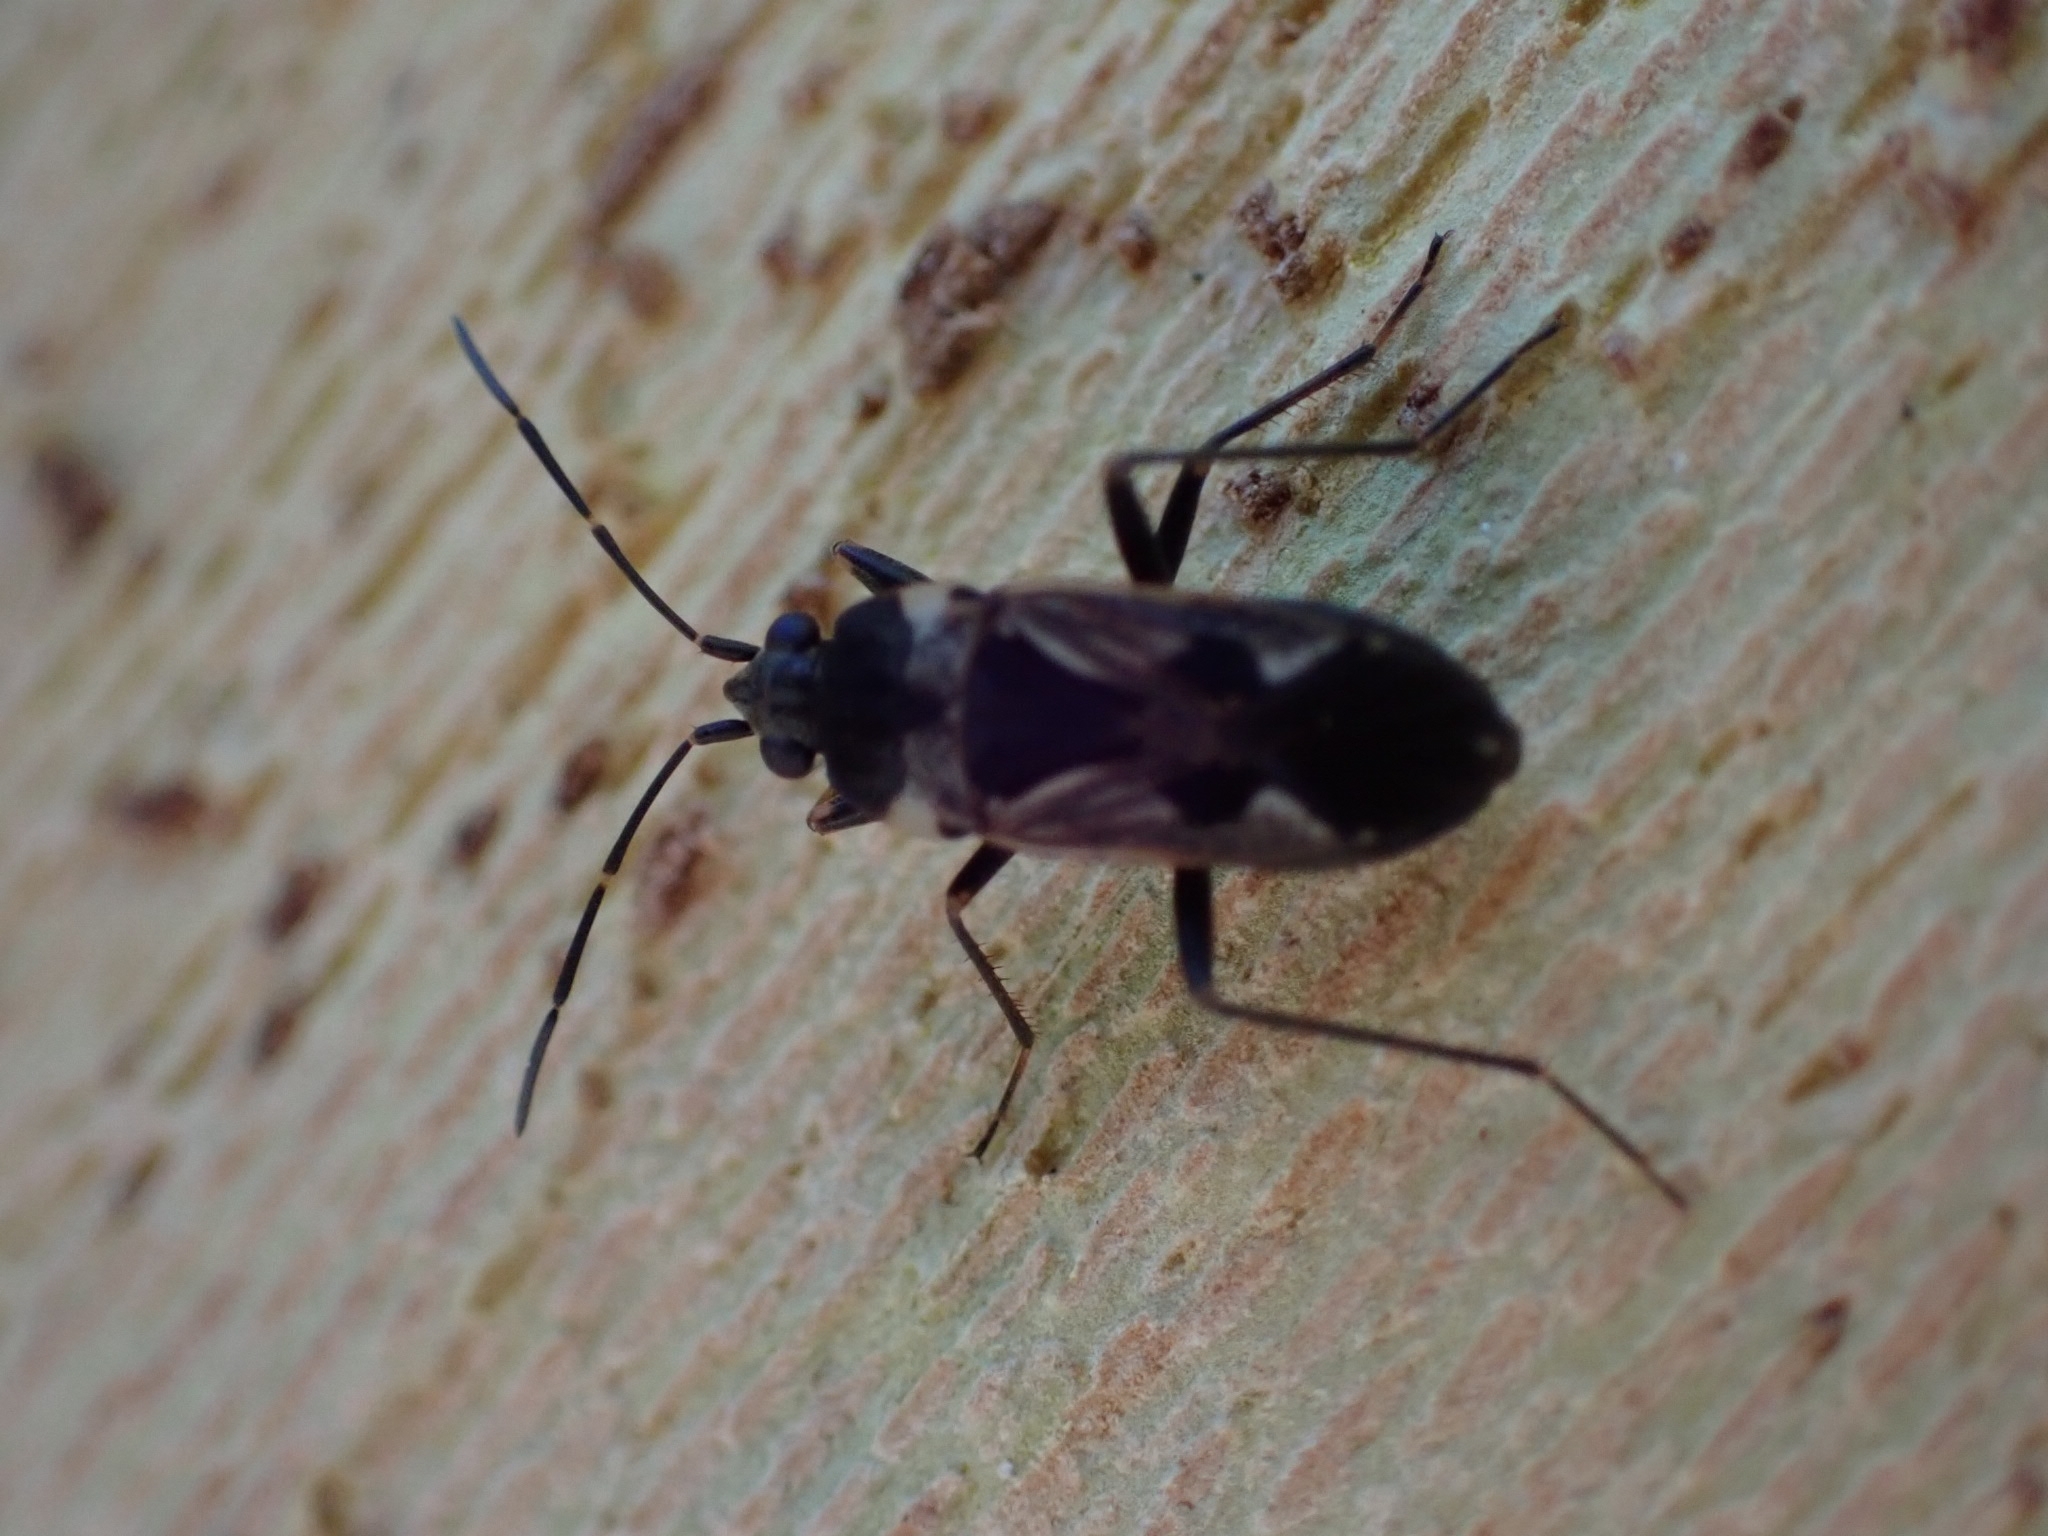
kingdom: Animalia
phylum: Arthropoda
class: Insecta
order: Hemiptera
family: Rhyparochromidae
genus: Rhyparochromus
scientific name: Rhyparochromus vulgaris
